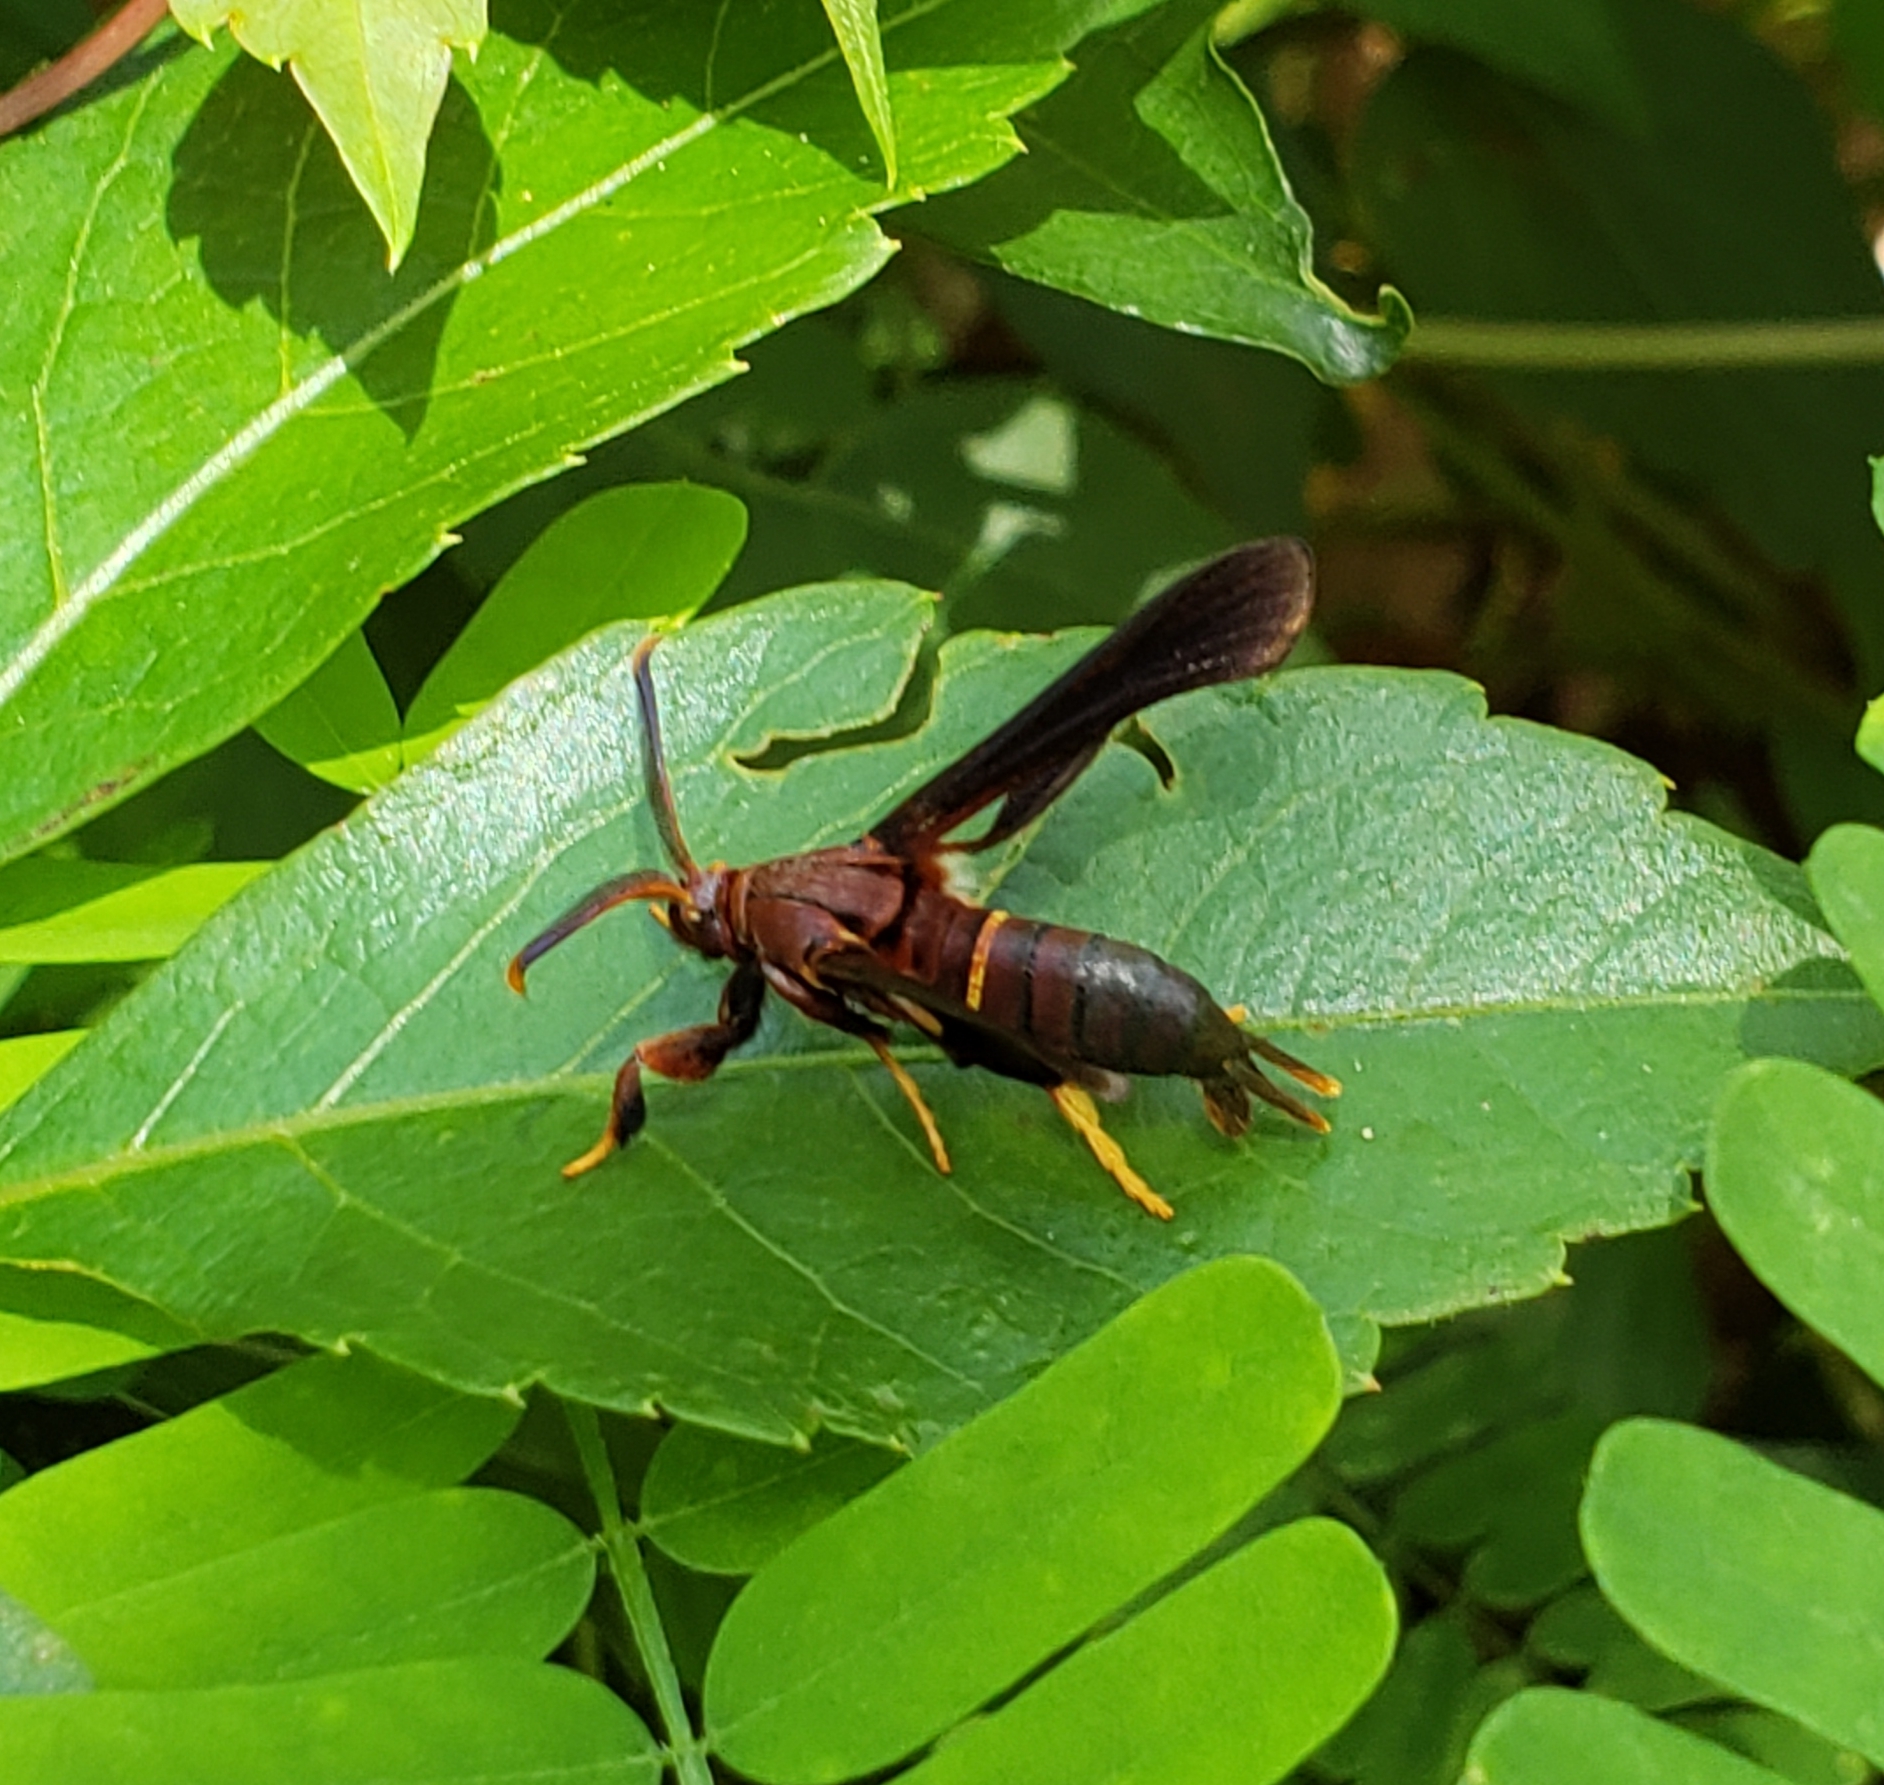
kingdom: Animalia
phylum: Arthropoda
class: Insecta
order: Lepidoptera
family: Sesiidae
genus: Vitacea
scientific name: Vitacea polistiformis
